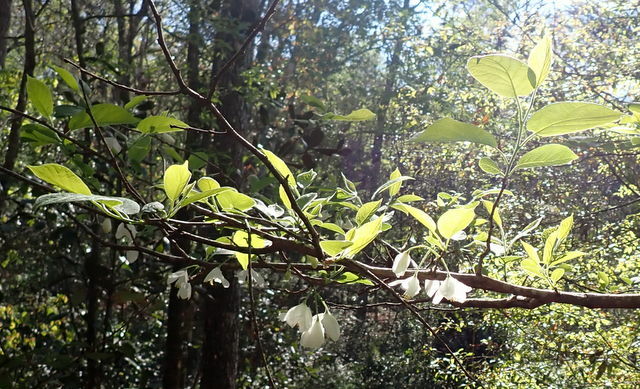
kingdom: Plantae
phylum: Tracheophyta
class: Magnoliopsida
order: Ericales
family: Styracaceae
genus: Halesia
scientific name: Halesia diptera
